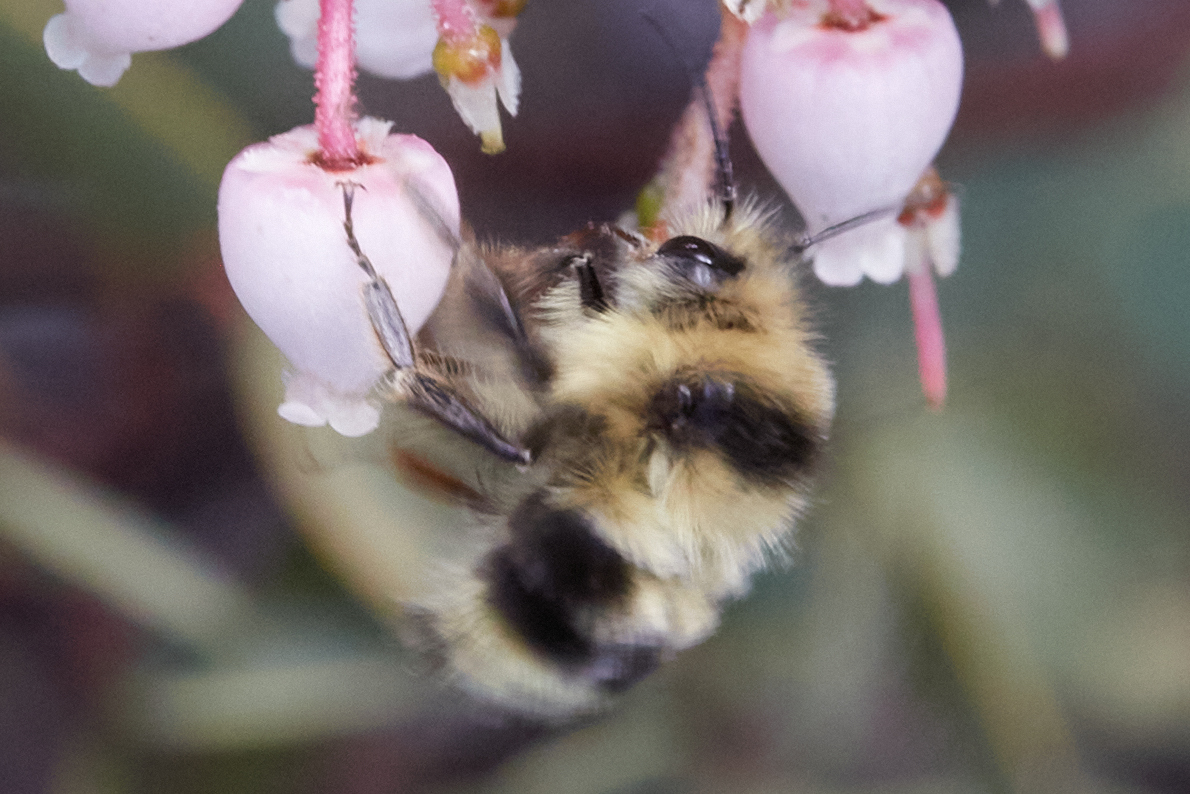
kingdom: Animalia
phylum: Arthropoda
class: Insecta
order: Hymenoptera
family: Apidae
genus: Bombus
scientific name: Bombus melanopygus
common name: Black tail bumble bee
